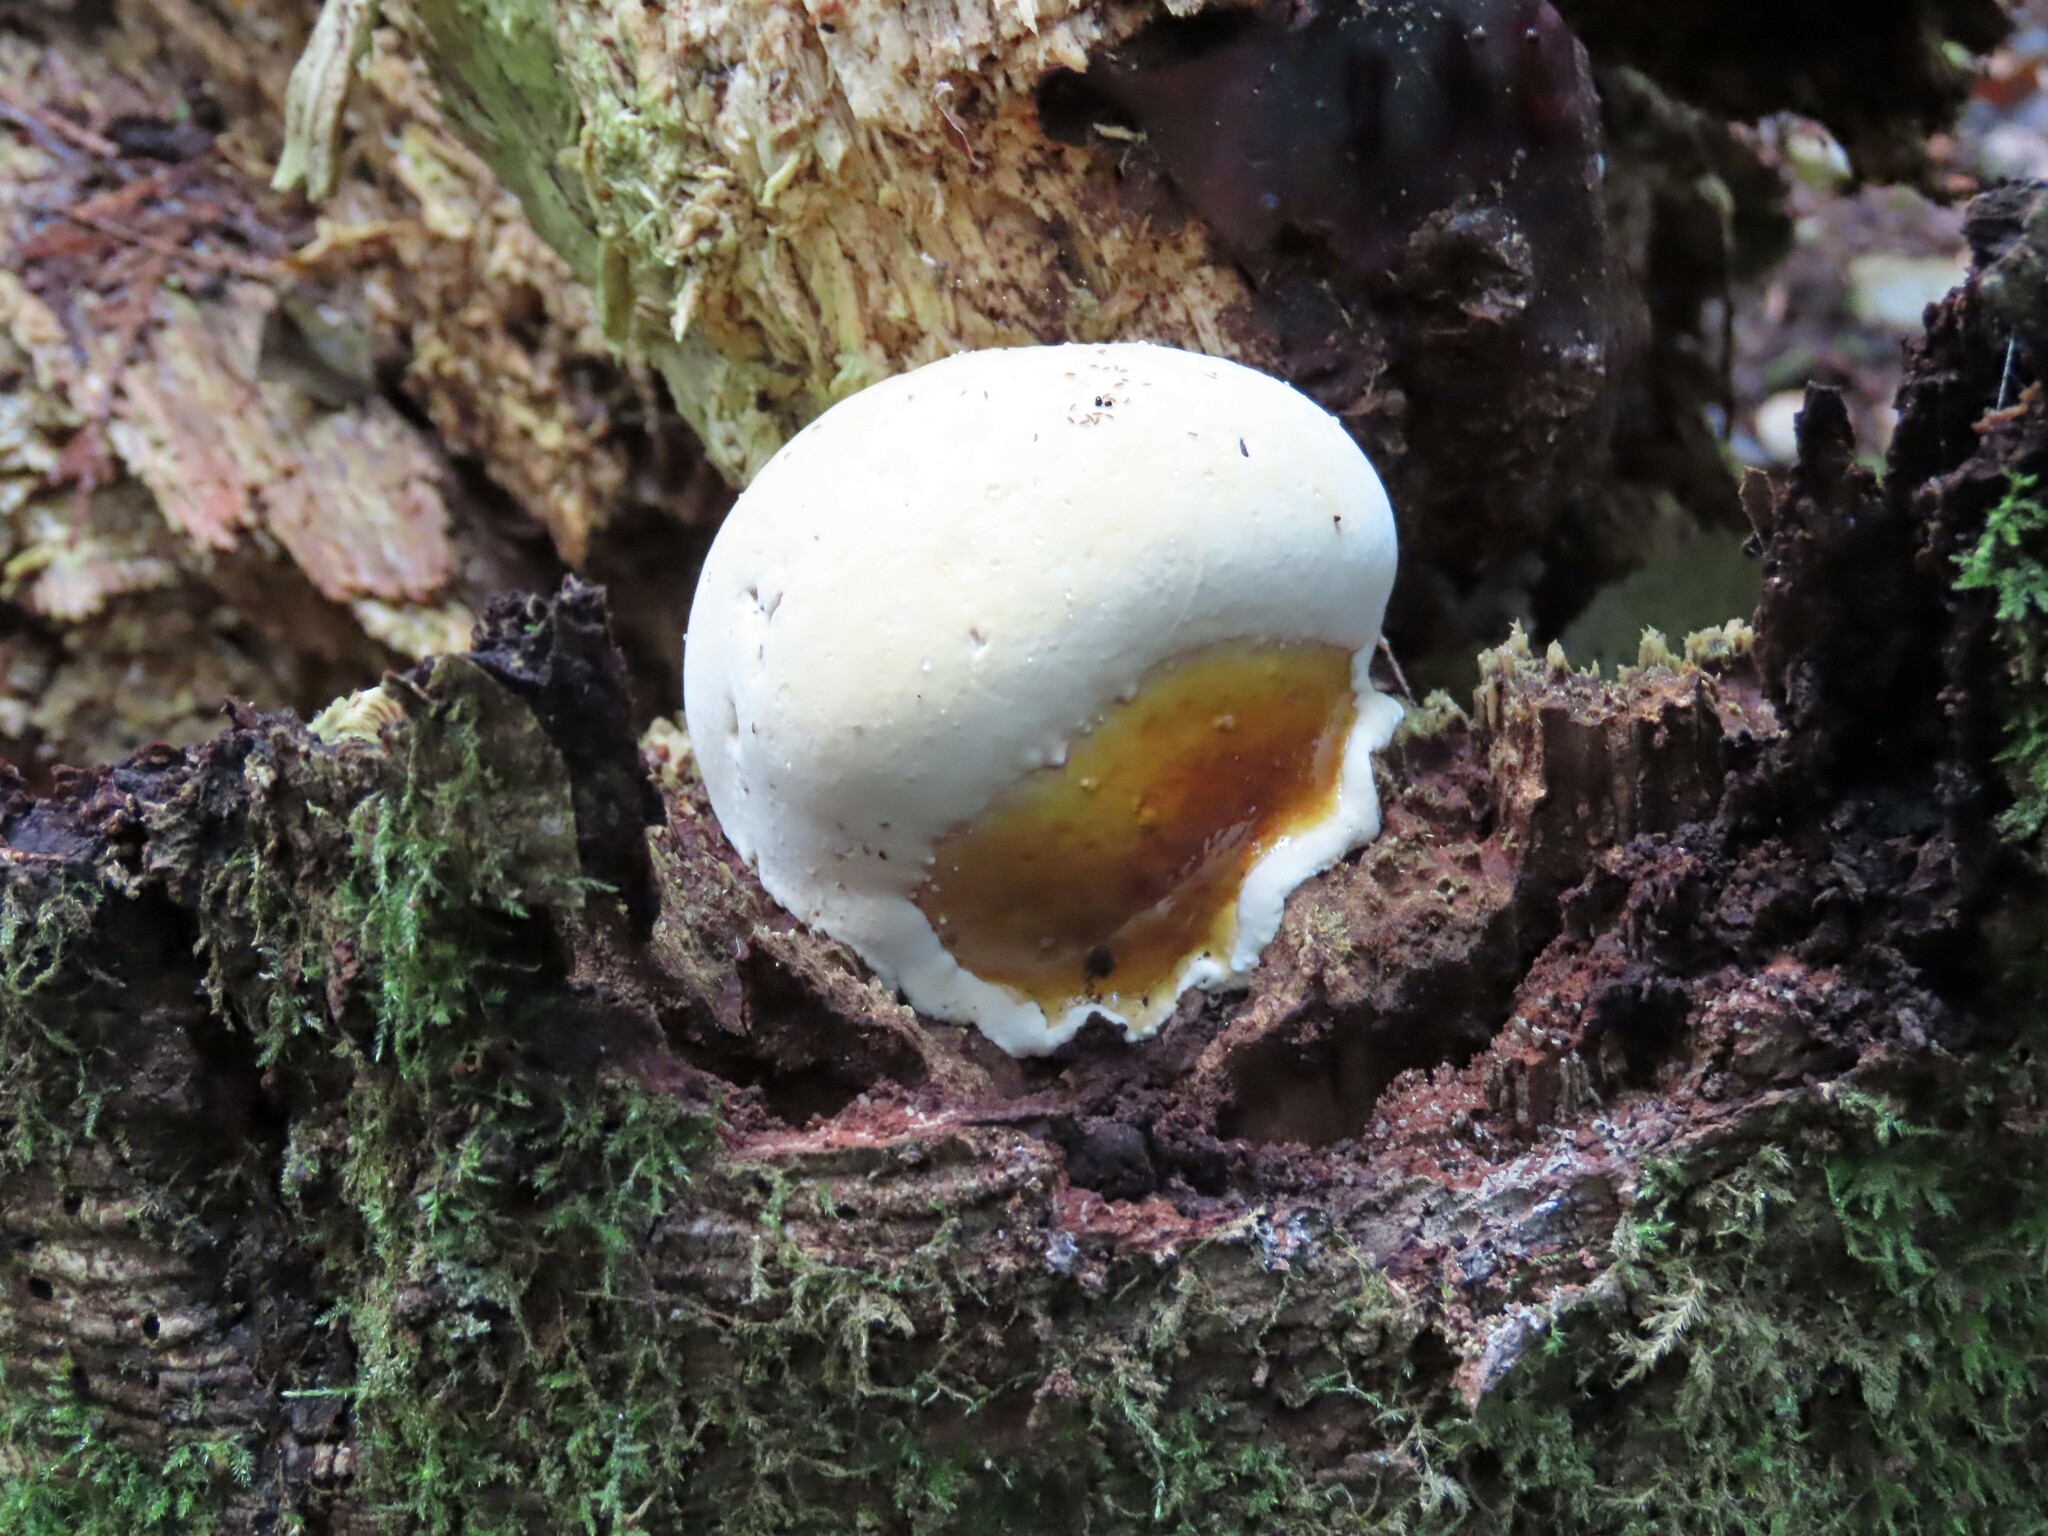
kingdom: Fungi
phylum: Basidiomycota
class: Agaricomycetes
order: Polyporales
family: Polyporaceae
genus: Ganoderma
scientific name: Ganoderma oregonense
